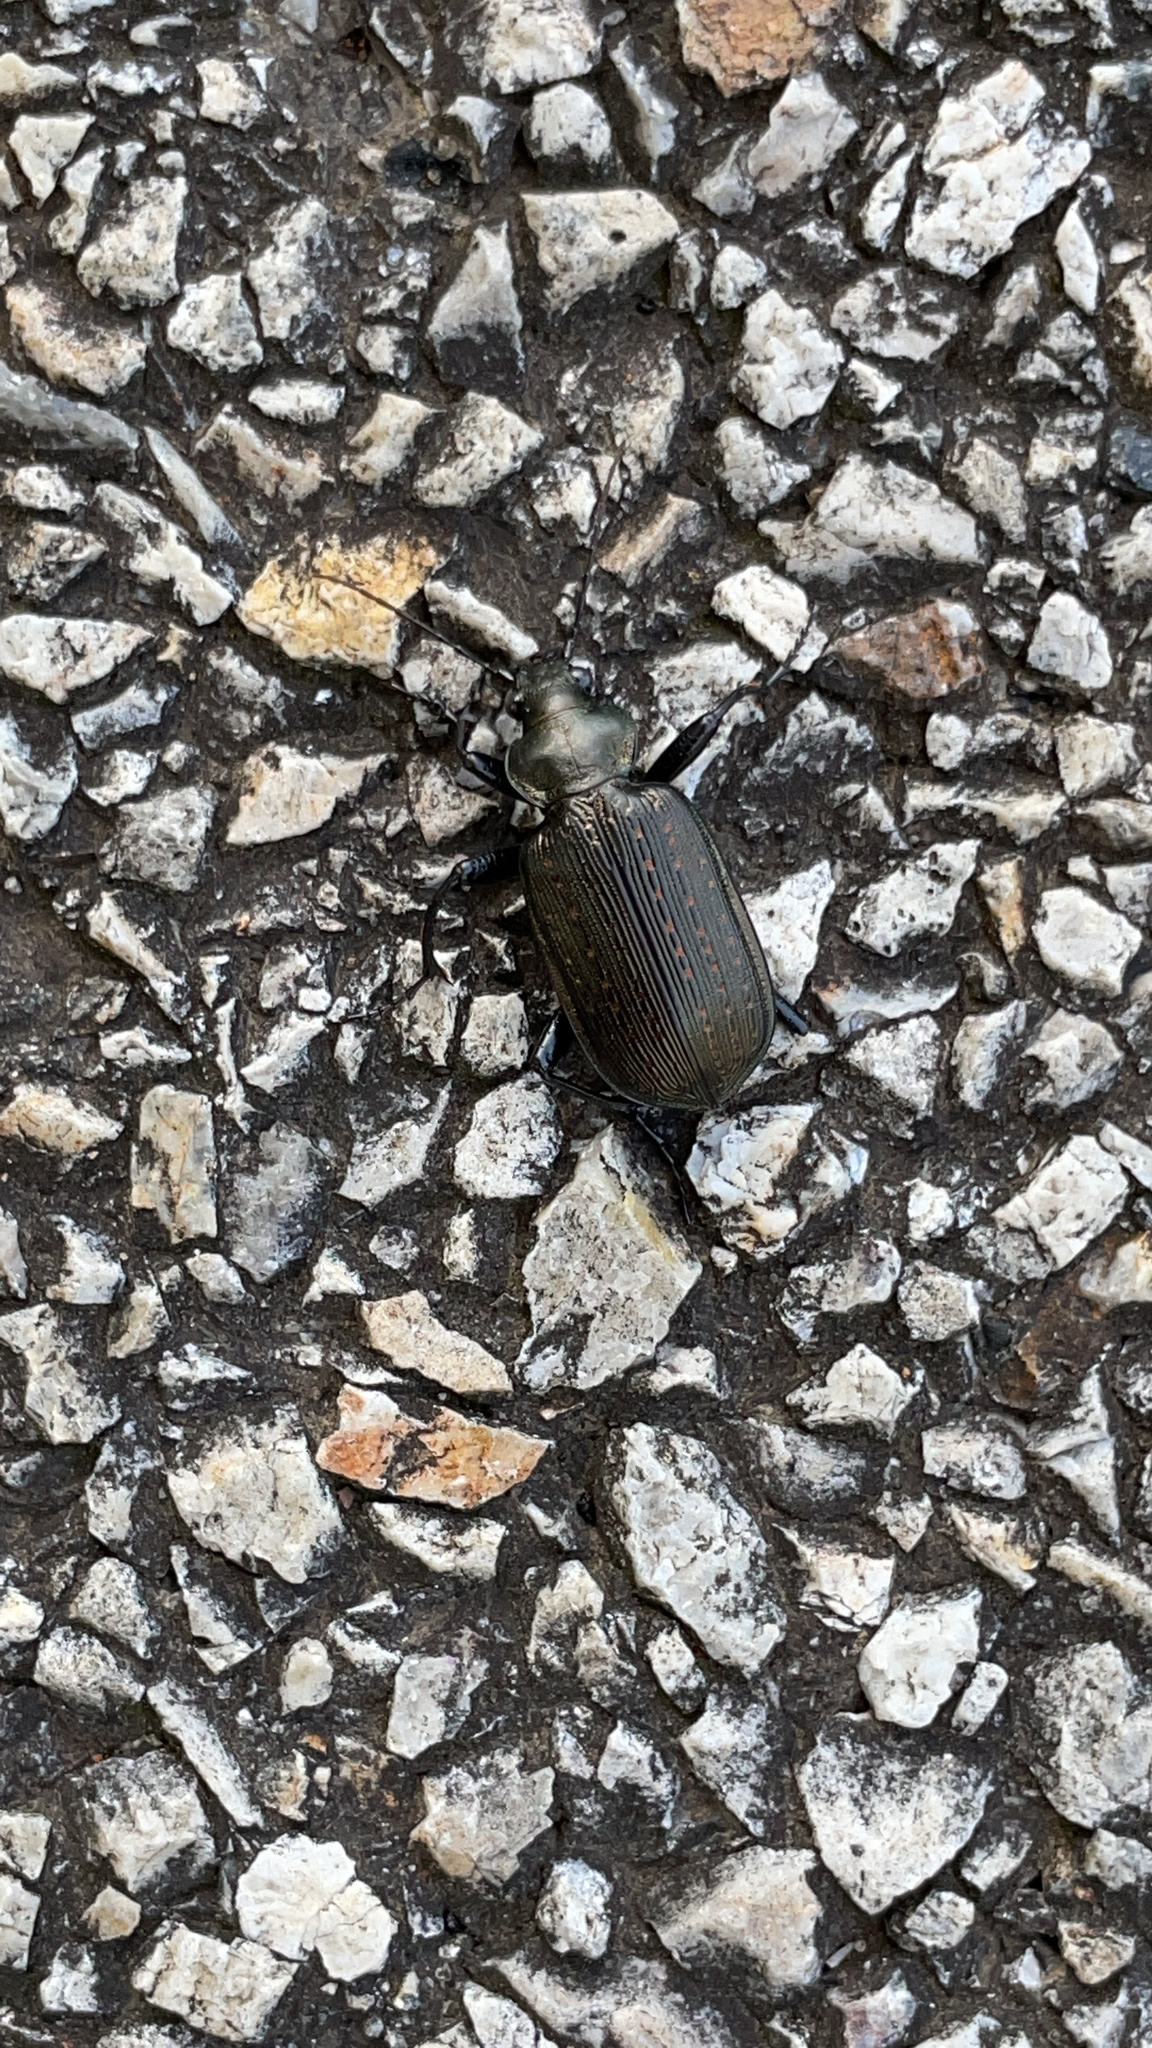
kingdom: Animalia
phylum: Arthropoda
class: Insecta
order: Coleoptera
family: Carabidae
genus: Calosoma
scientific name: Calosoma sayi
